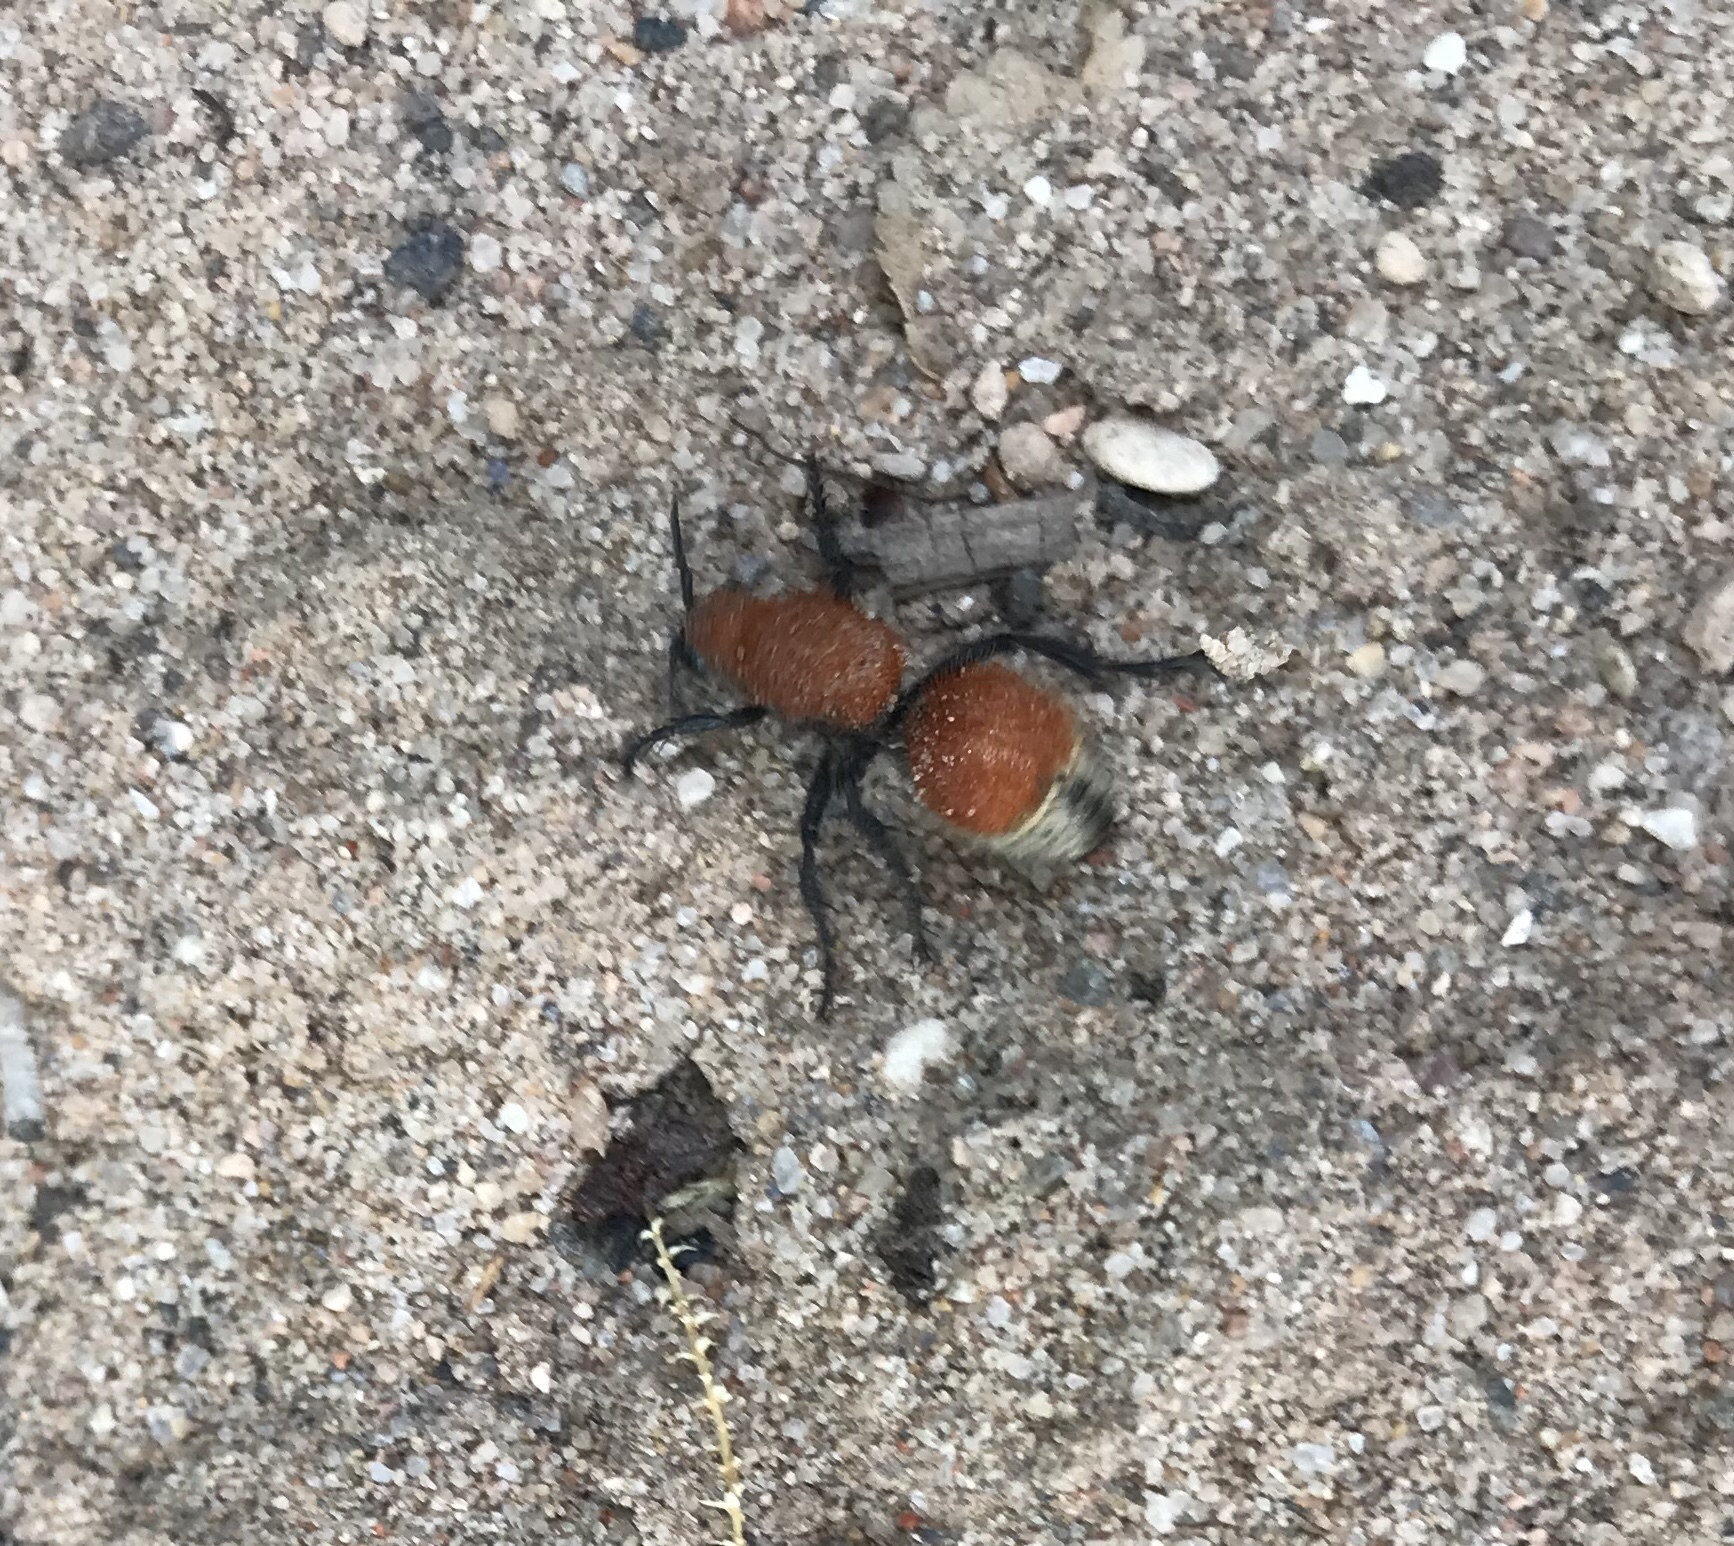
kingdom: Animalia
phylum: Arthropoda
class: Insecta
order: Hymenoptera
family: Mutillidae
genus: Dasymutilla
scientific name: Dasymutilla
